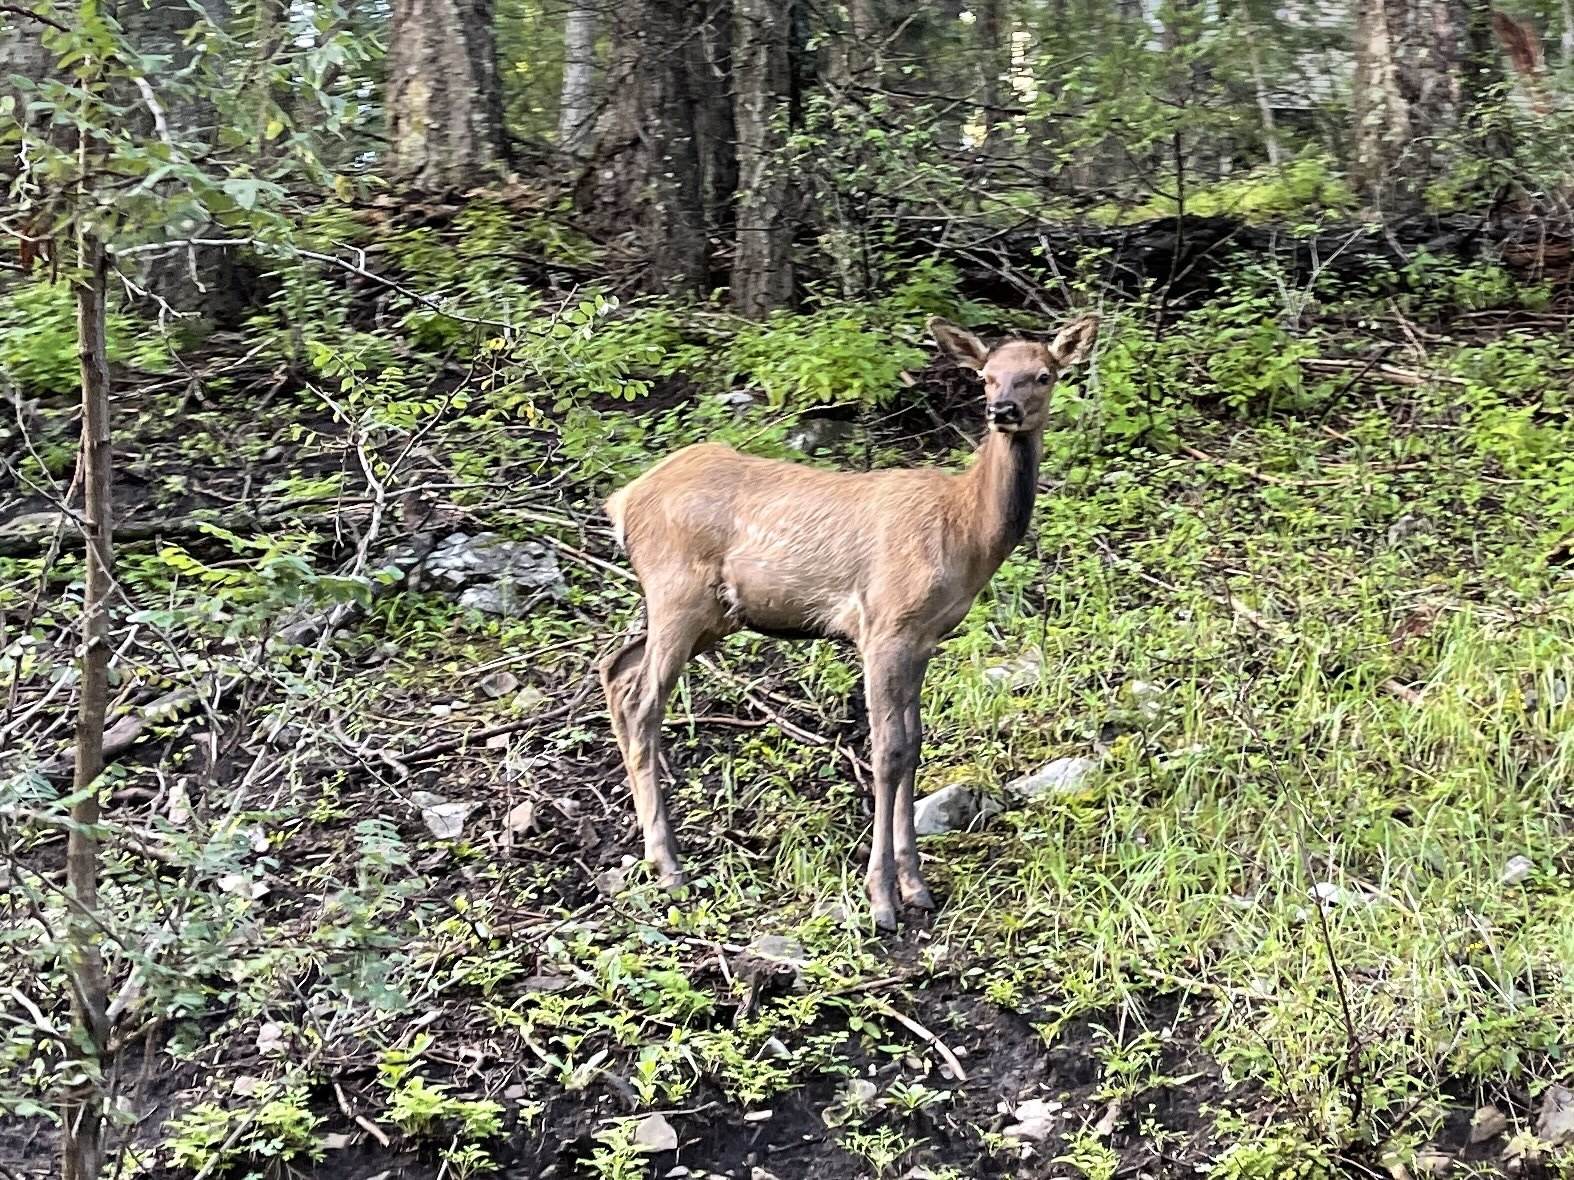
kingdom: Animalia
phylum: Chordata
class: Mammalia
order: Artiodactyla
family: Cervidae
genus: Cervus
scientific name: Cervus elaphus
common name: Red deer
